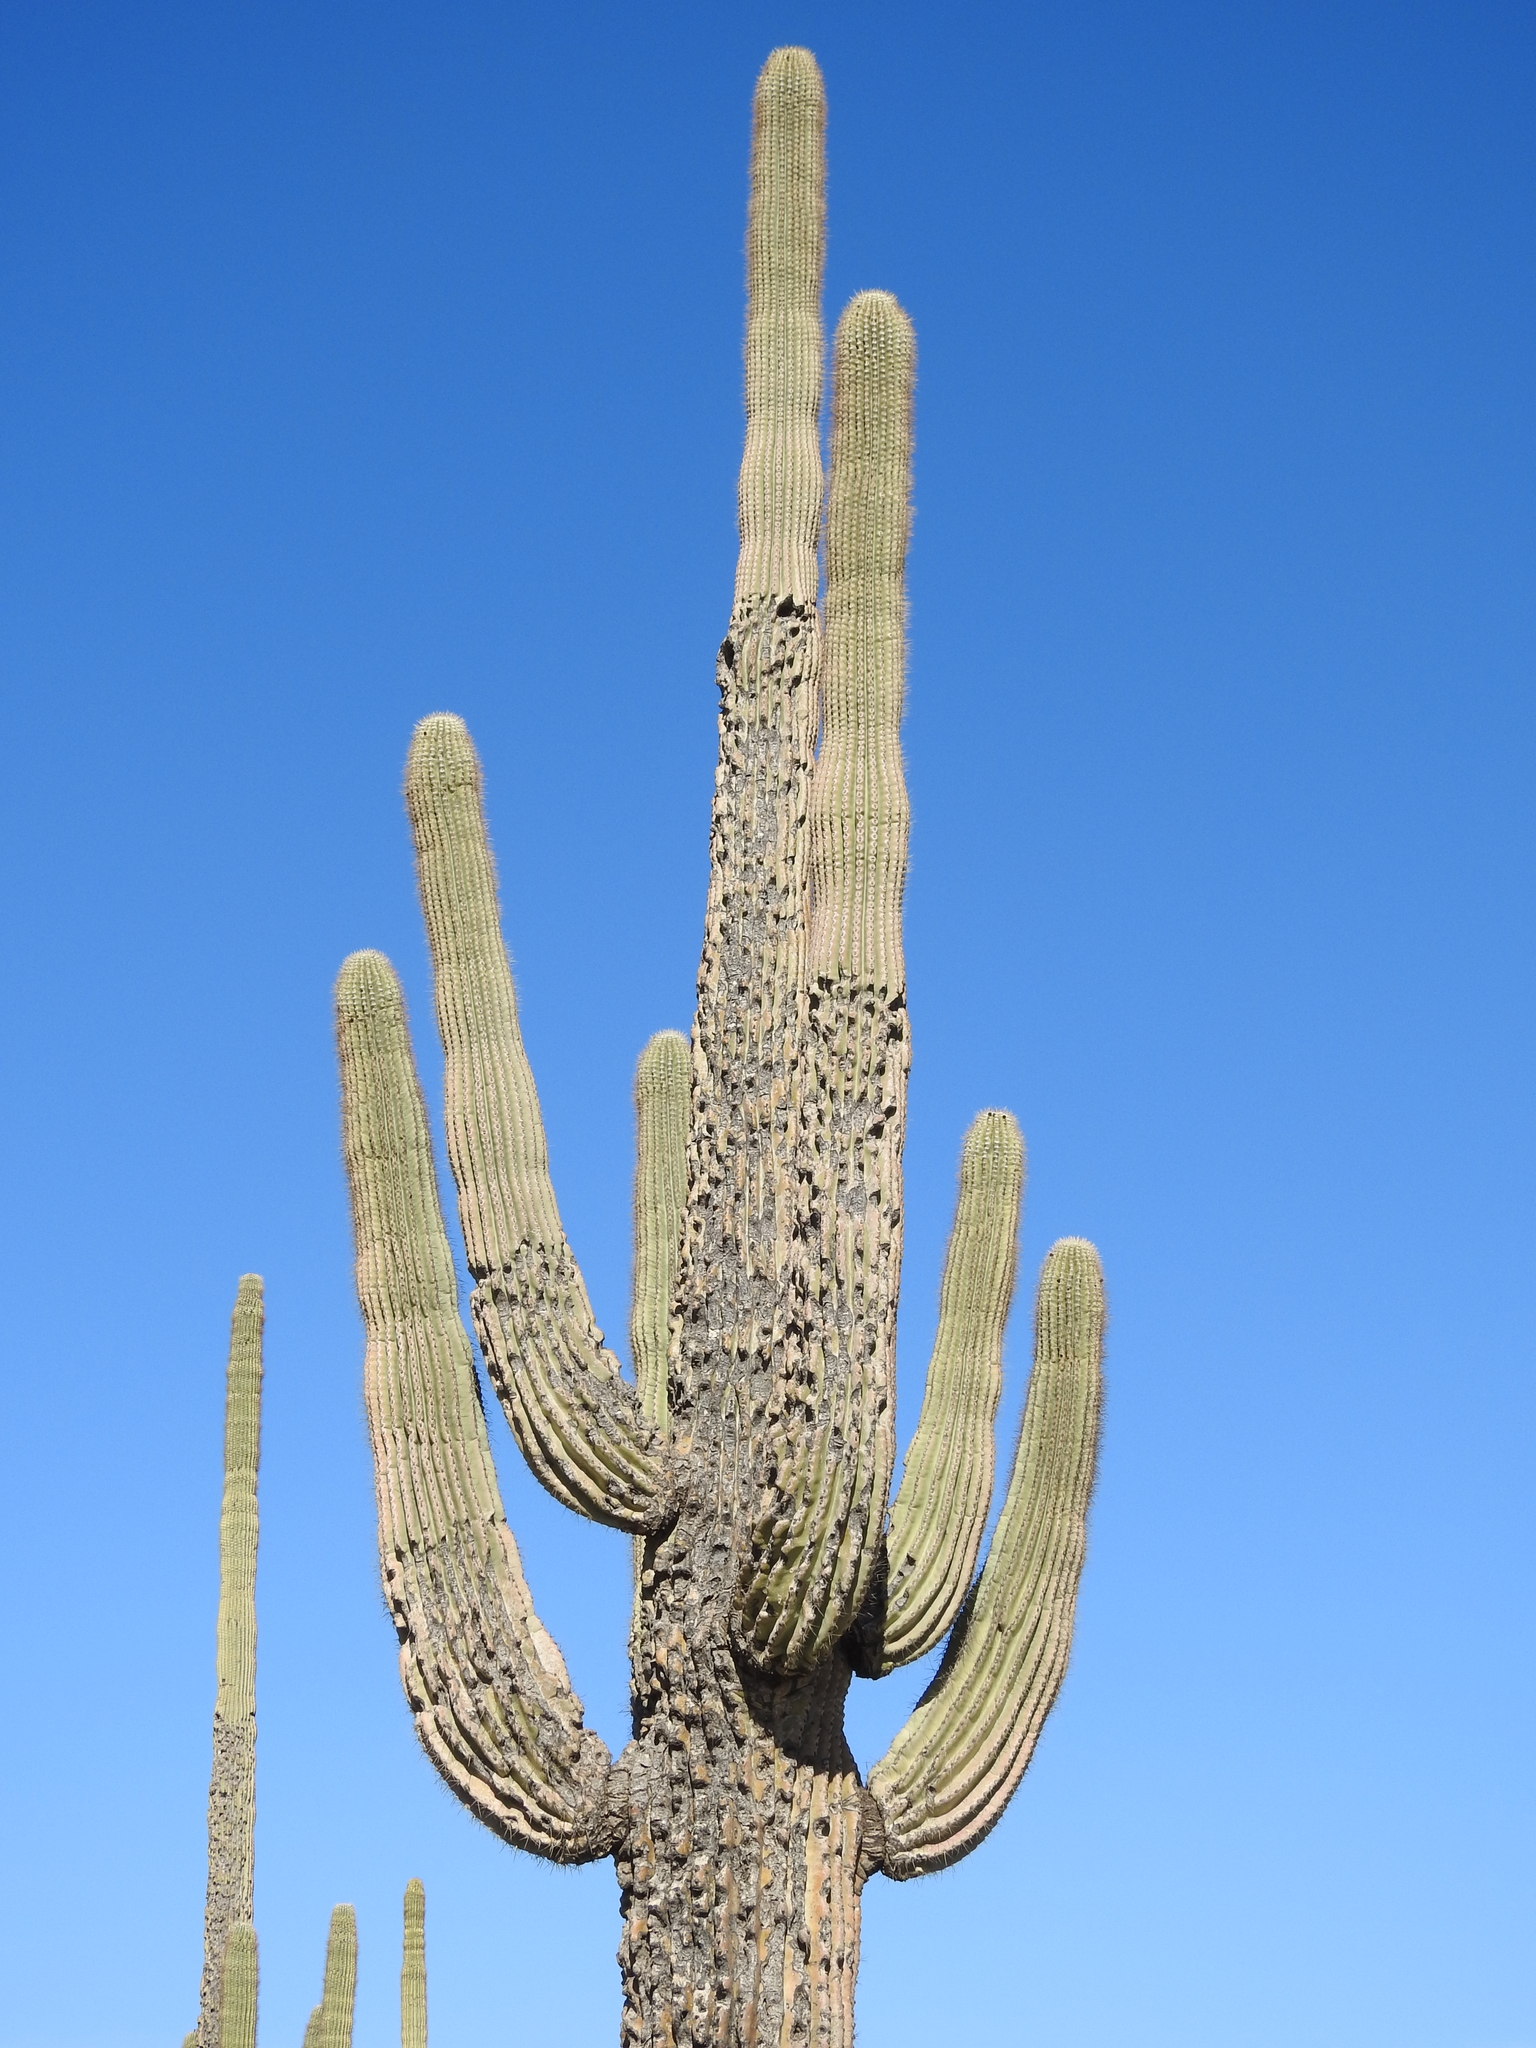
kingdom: Plantae
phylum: Tracheophyta
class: Magnoliopsida
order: Caryophyllales
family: Cactaceae
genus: Carnegiea
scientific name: Carnegiea gigantea
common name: Saguaro
